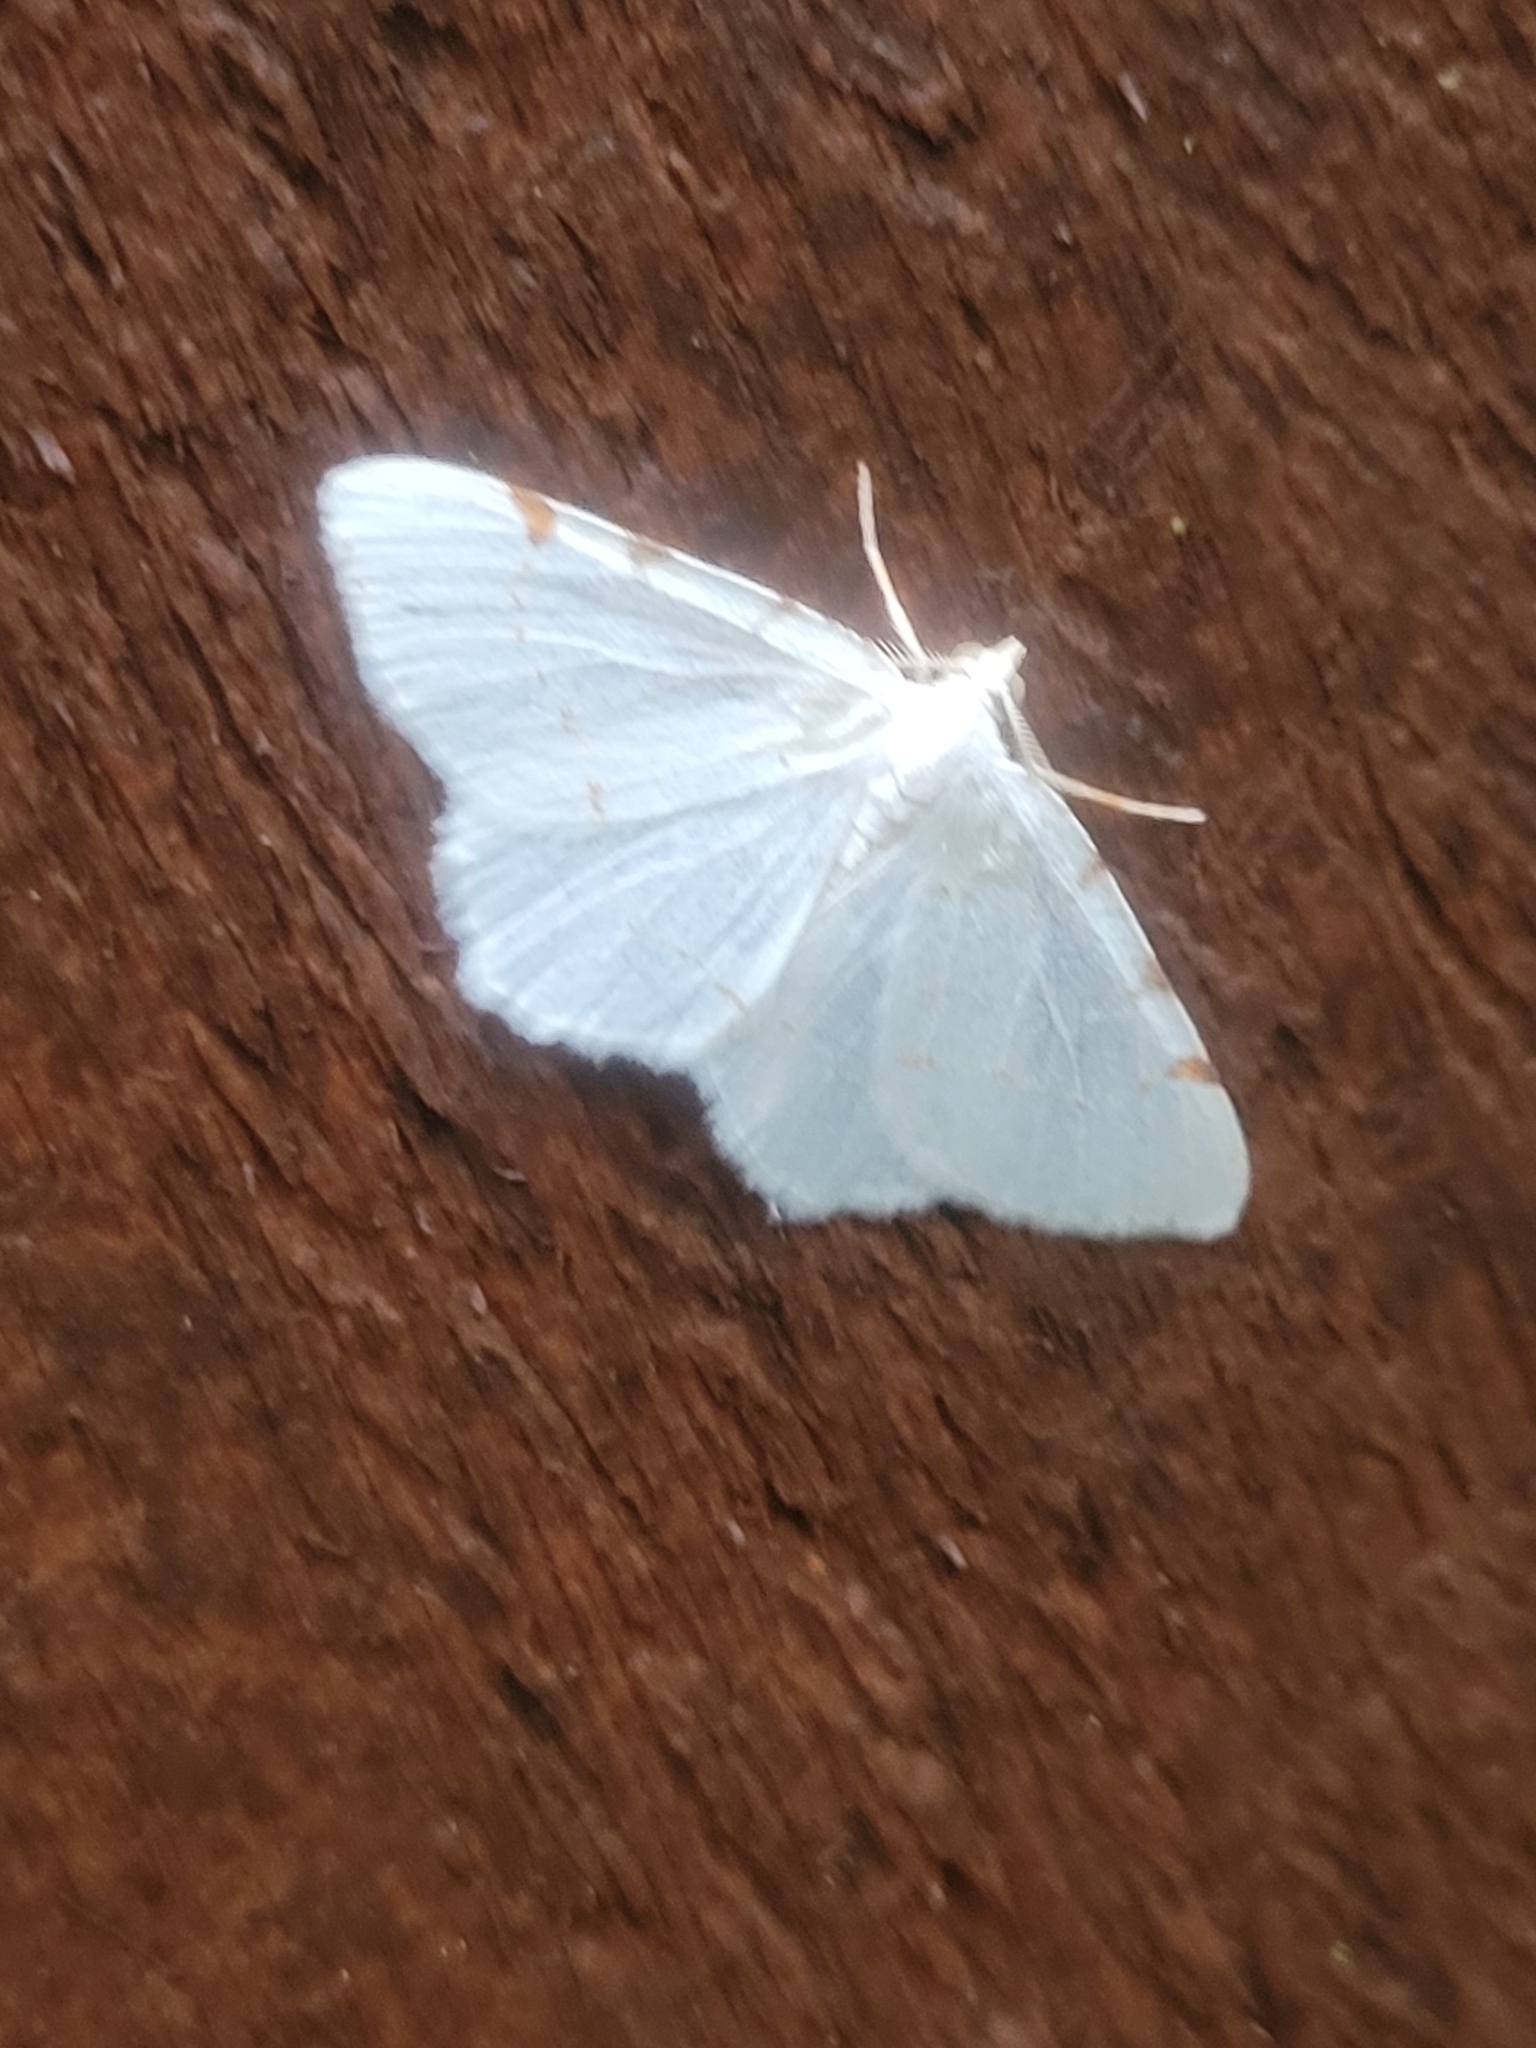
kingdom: Animalia
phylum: Arthropoda
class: Insecta
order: Lepidoptera
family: Geometridae
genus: Macaria
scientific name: Macaria pustularia
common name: Lesser maple spanworm moth
